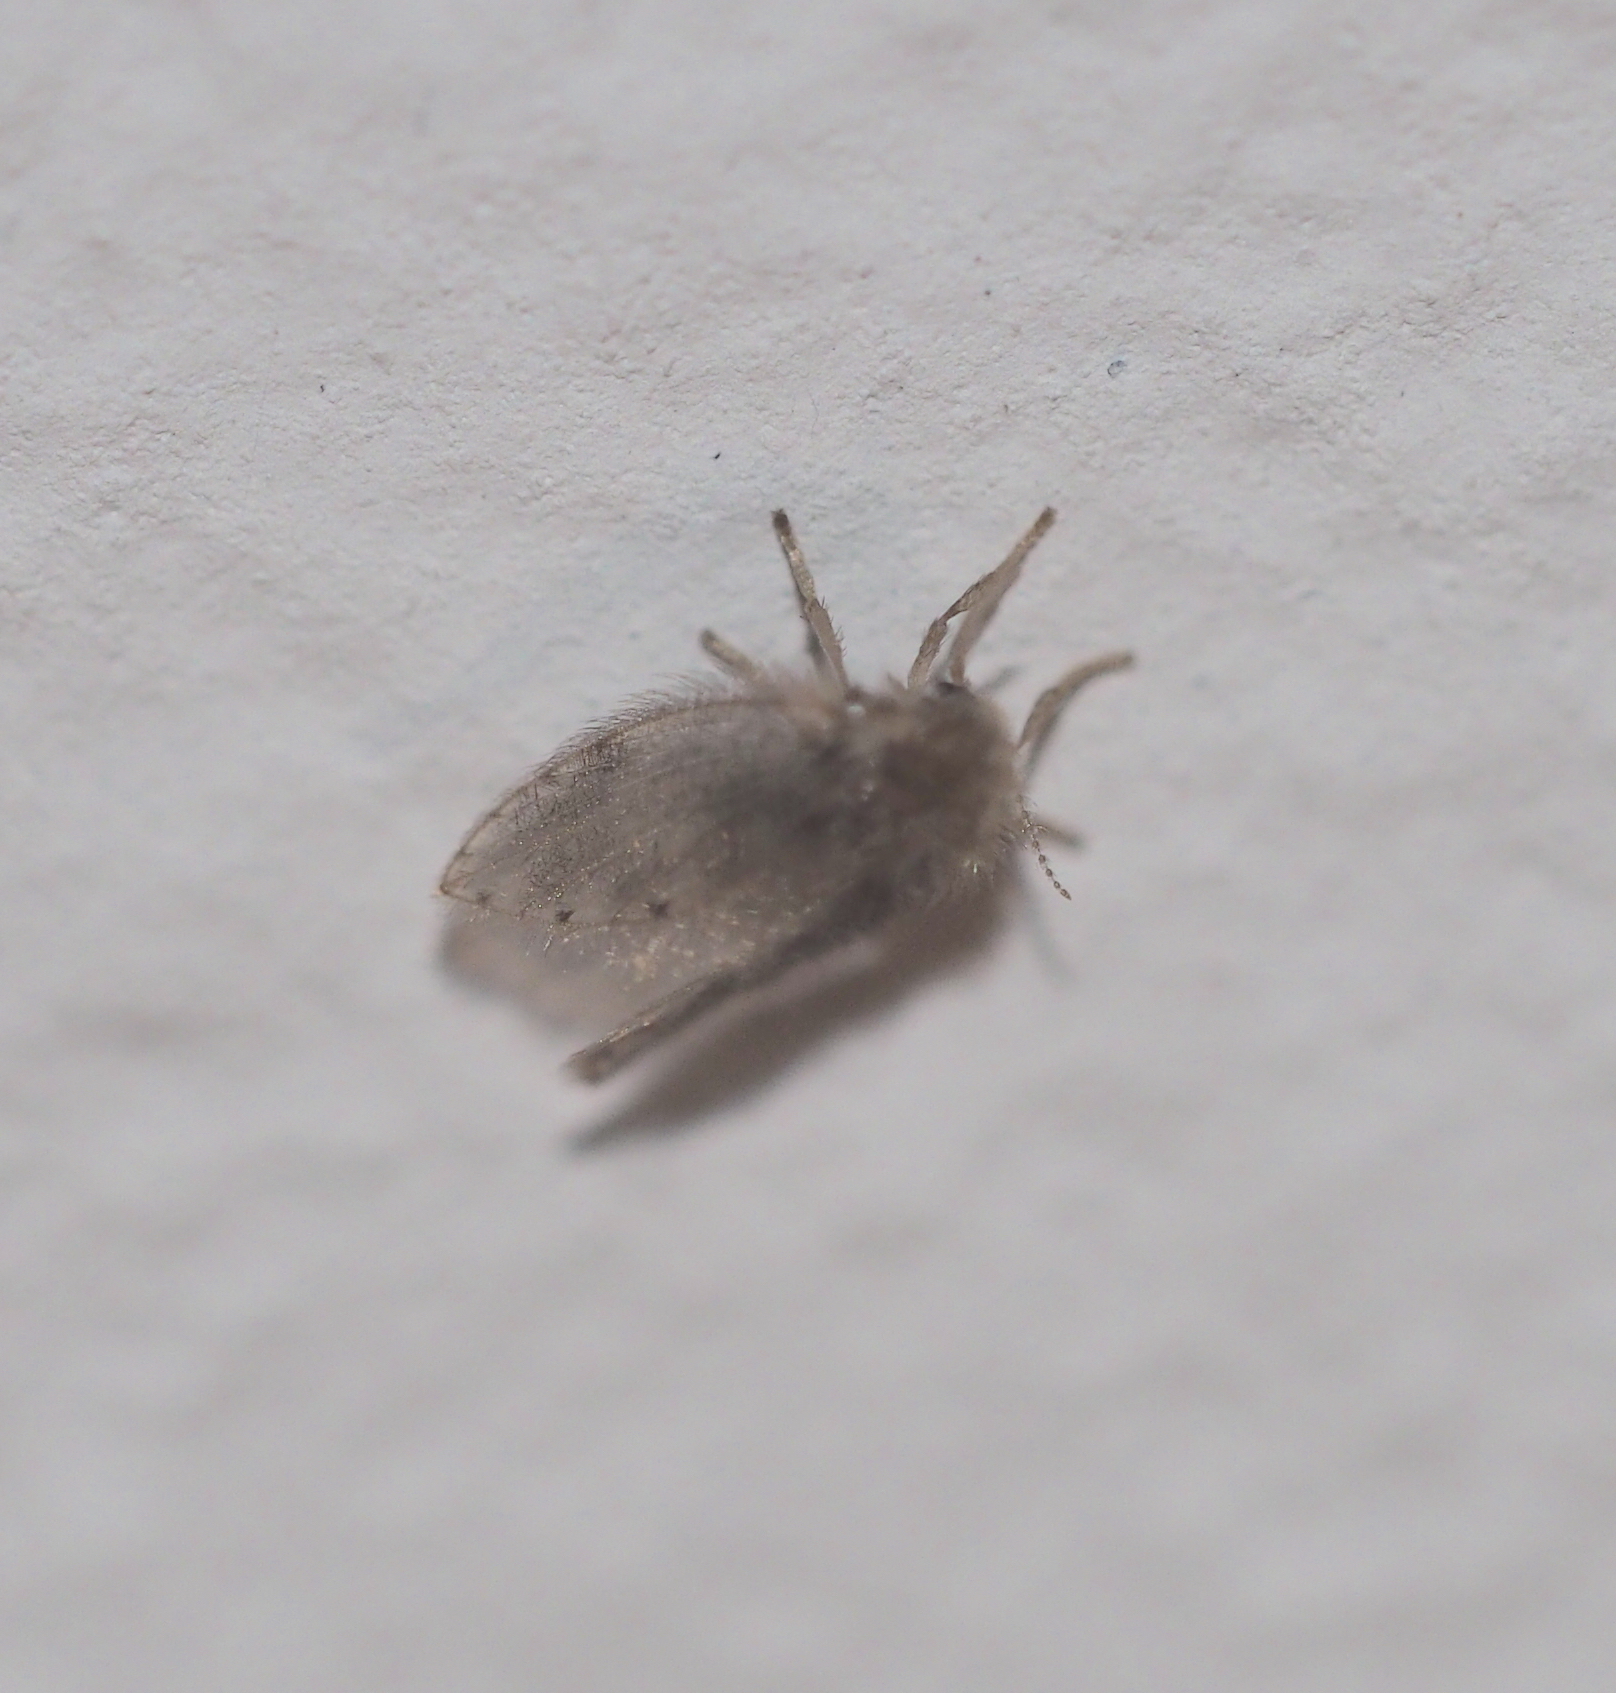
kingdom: Animalia
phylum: Arthropoda
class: Insecta
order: Diptera
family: Psychodidae
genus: Psychoda
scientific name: Psychoda alternata
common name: Moth fly
